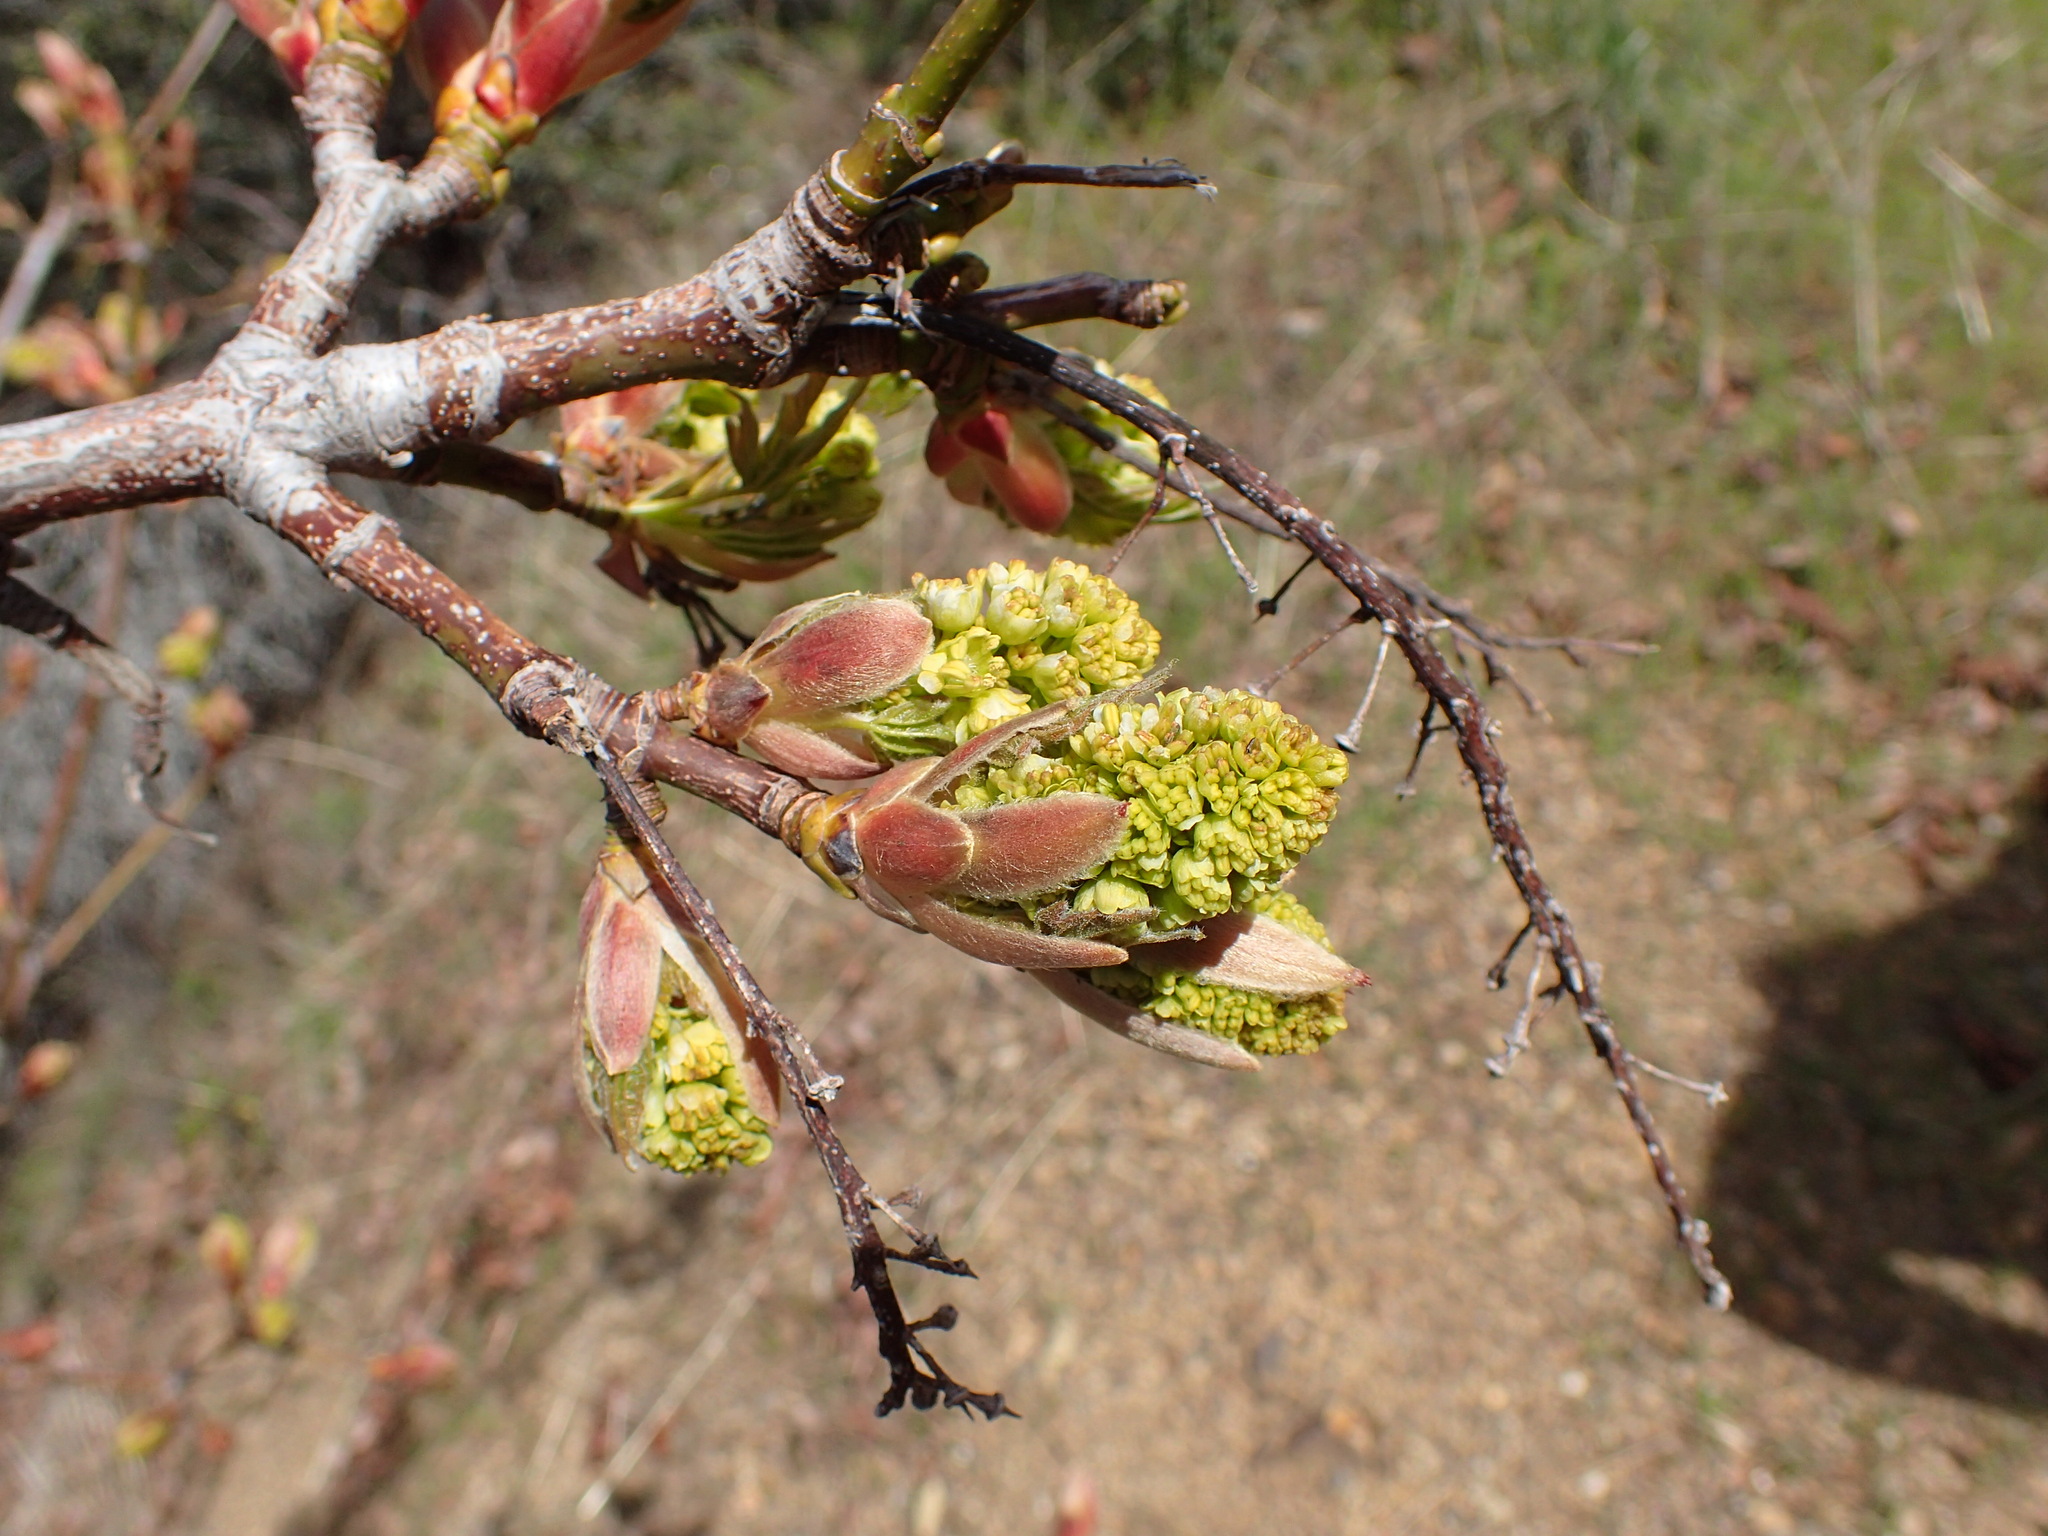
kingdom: Plantae
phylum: Tracheophyta
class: Magnoliopsida
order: Sapindales
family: Sapindaceae
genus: Acer
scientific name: Acer macrophyllum
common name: Oregon maple
